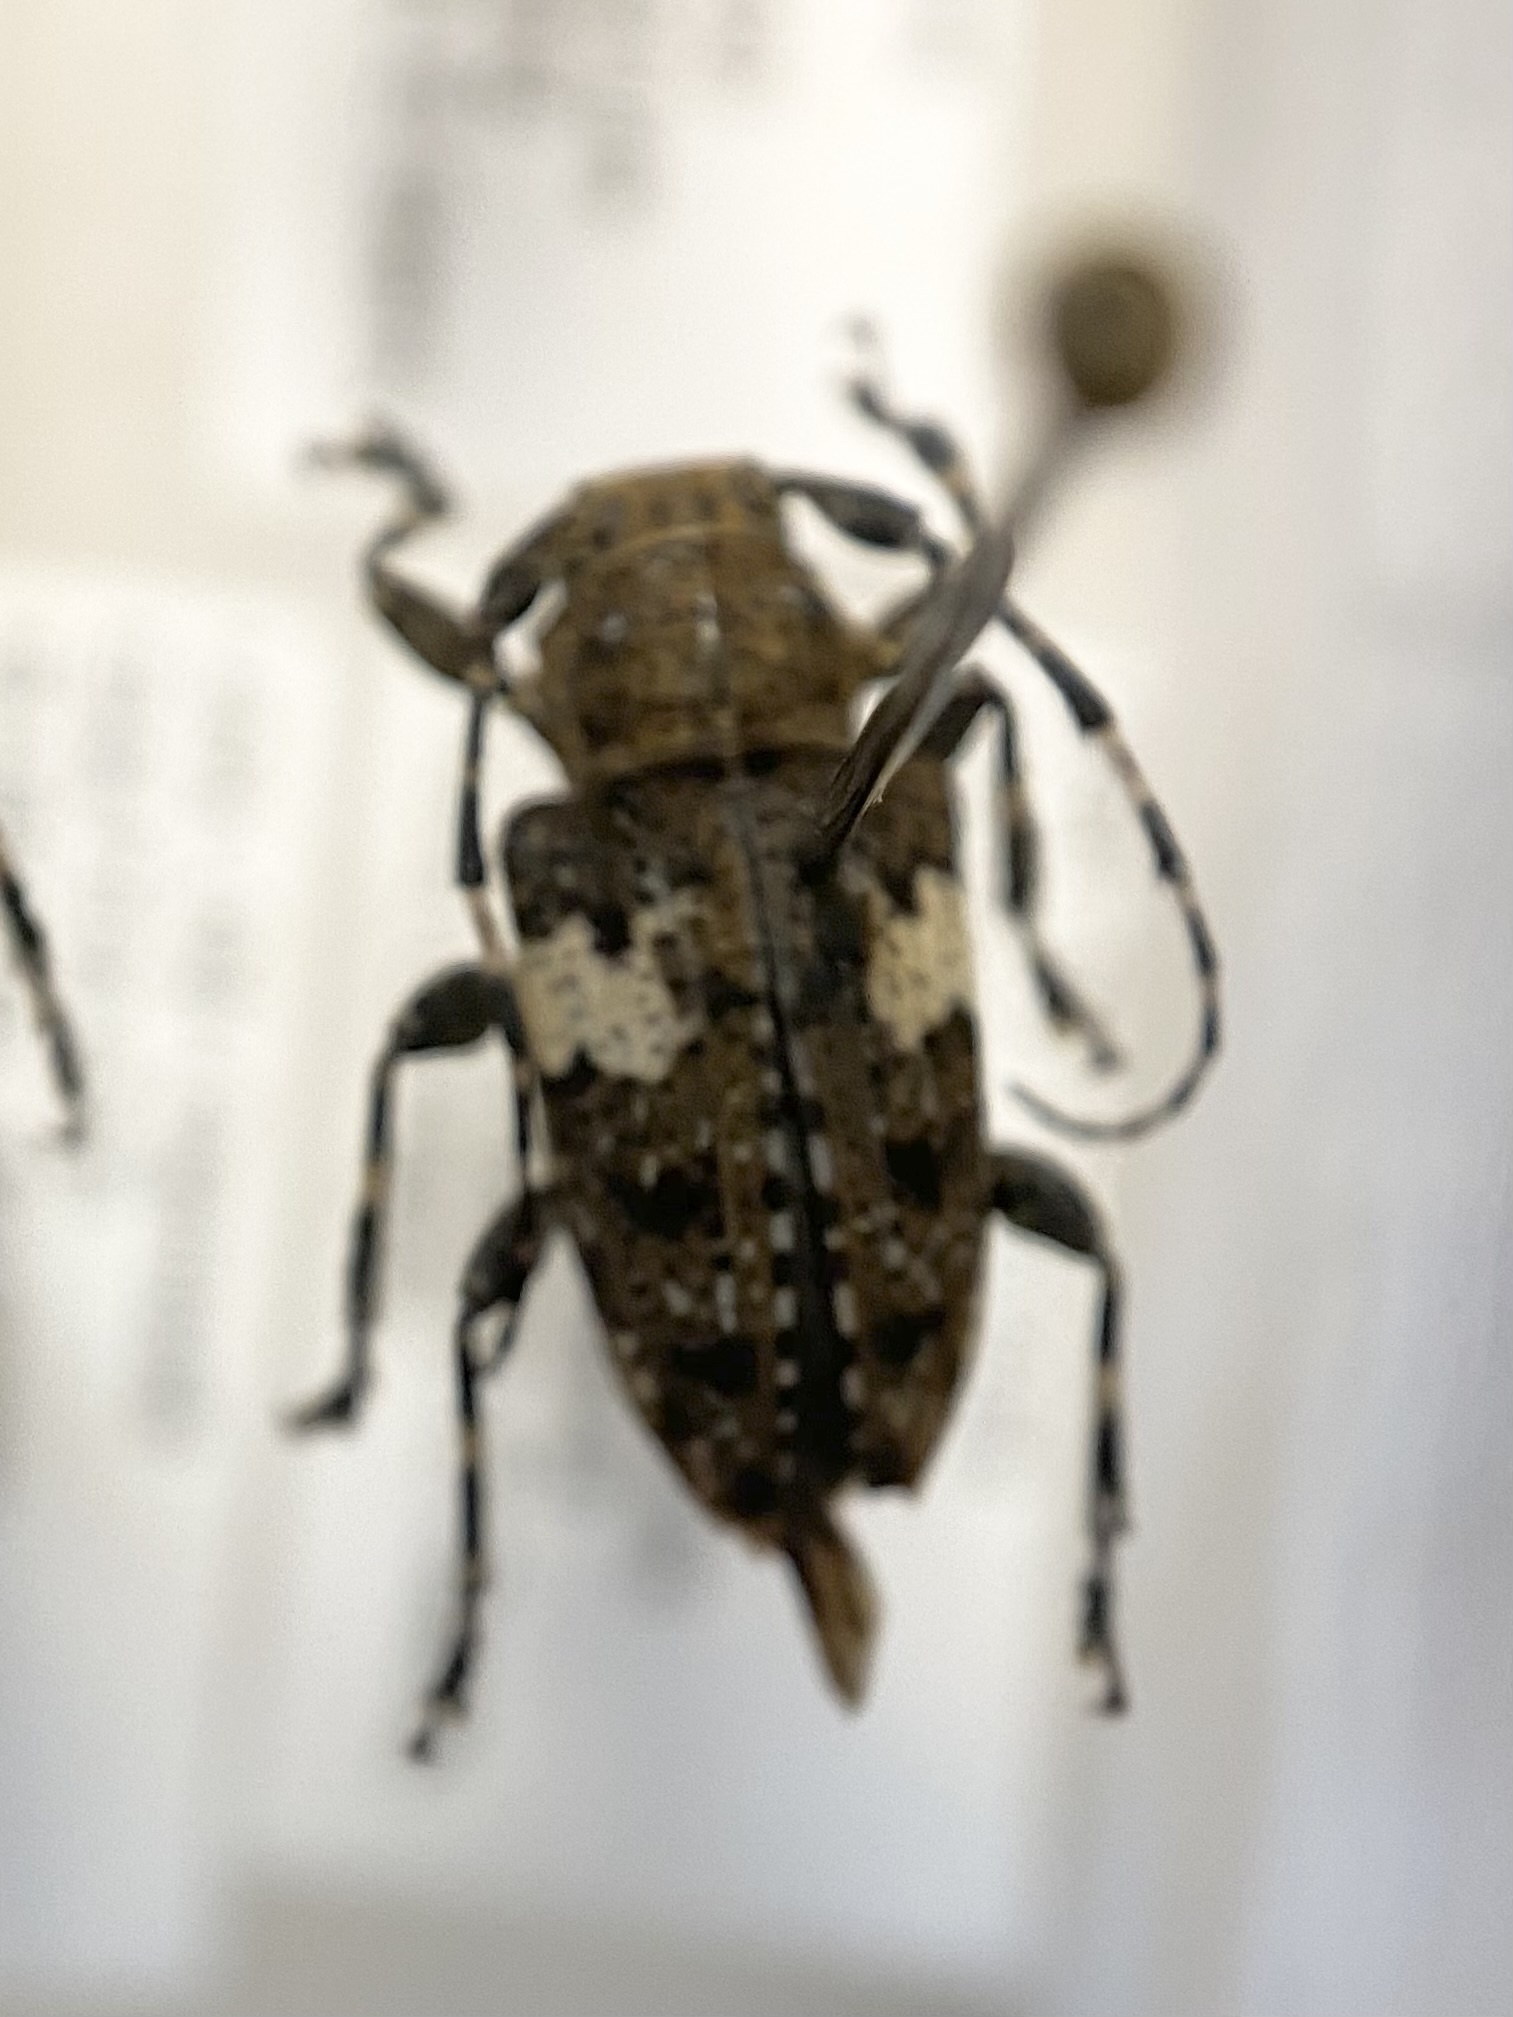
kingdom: Animalia
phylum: Arthropoda
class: Insecta
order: Coleoptera
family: Cerambycidae
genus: Acanthoderes
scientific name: Acanthoderes quadrigibba
